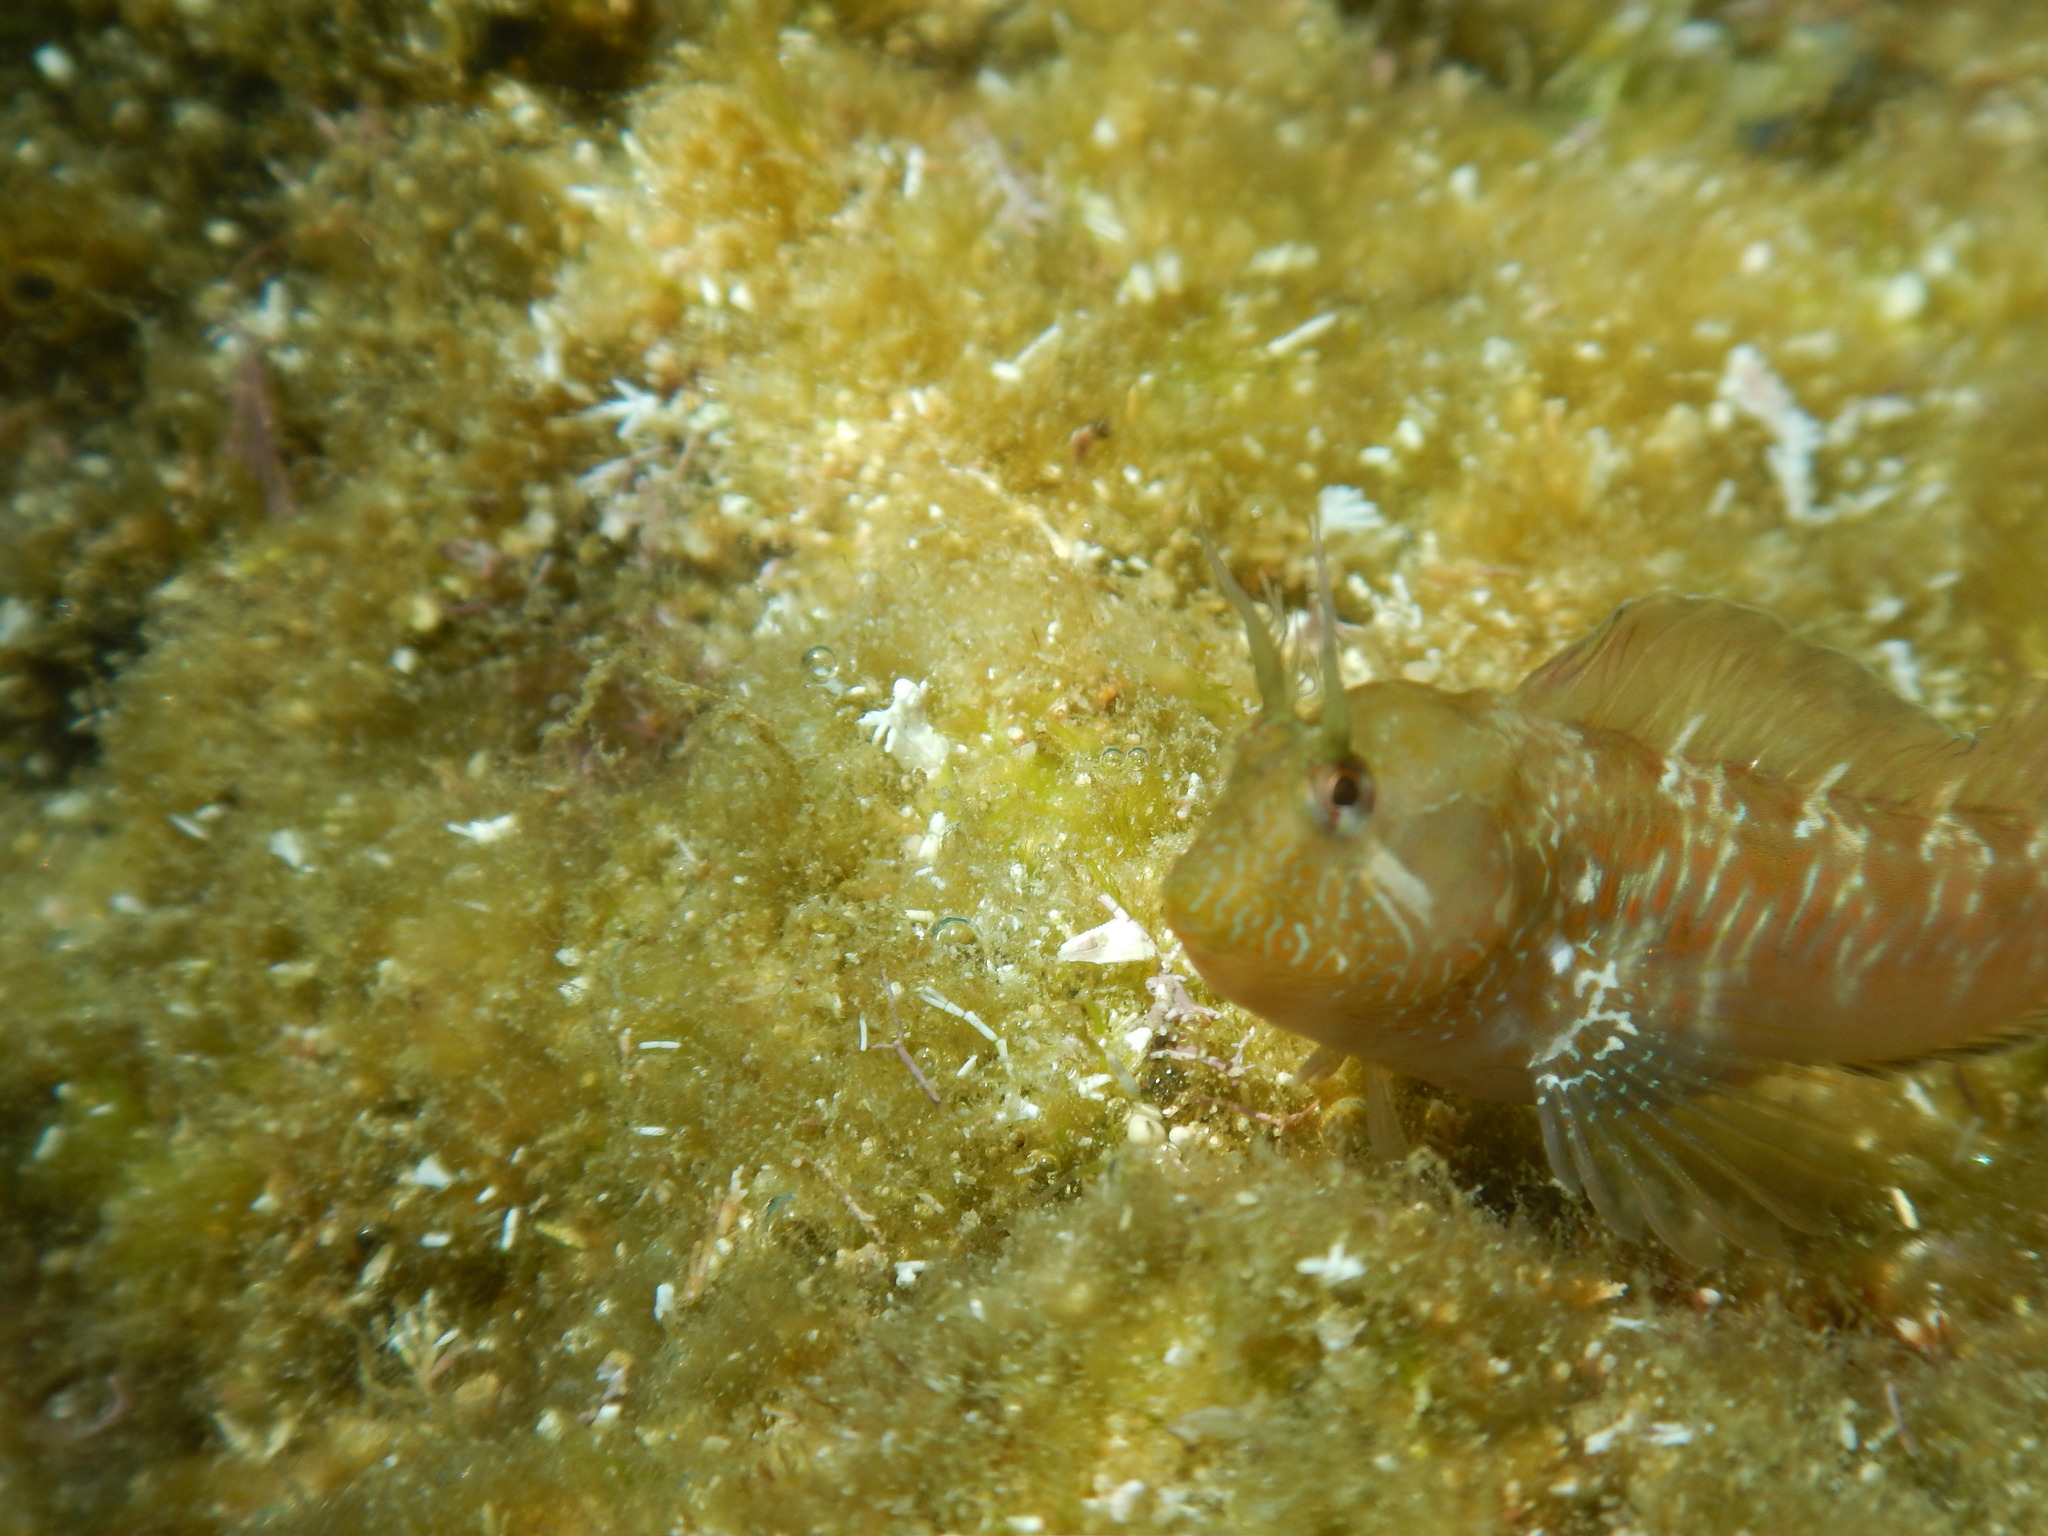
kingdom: Animalia
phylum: Chordata
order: Perciformes
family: Blenniidae
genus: Parablennius
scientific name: Parablennius incognitus
